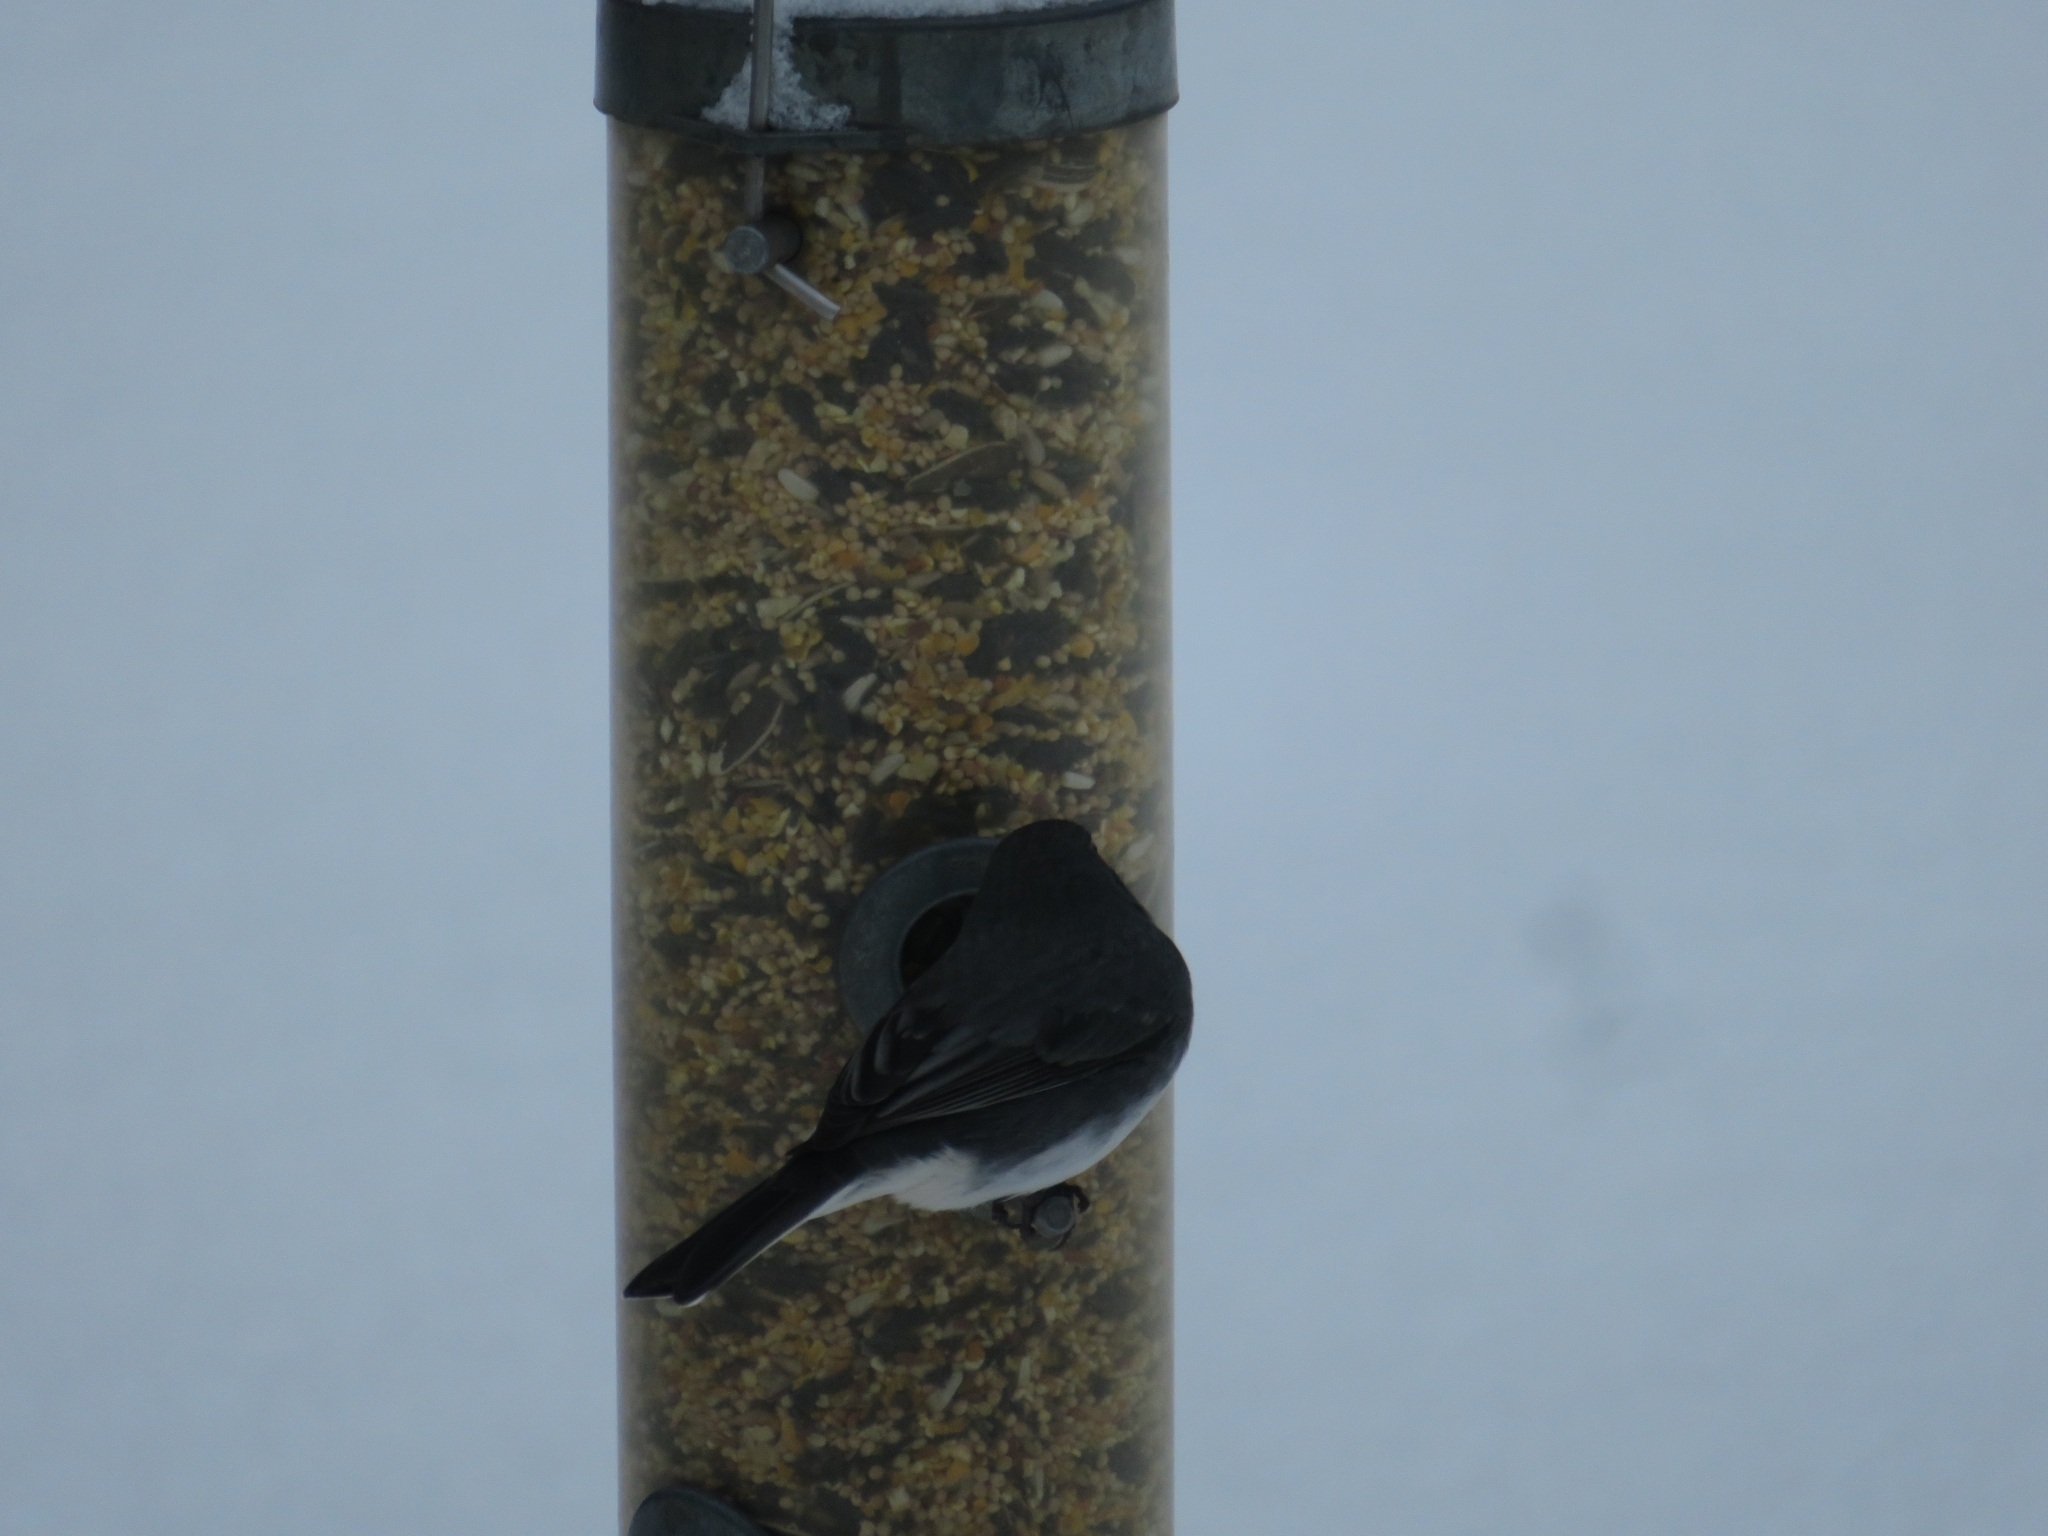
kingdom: Animalia
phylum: Chordata
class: Aves
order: Passeriformes
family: Passerellidae
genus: Junco
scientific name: Junco hyemalis
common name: Dark-eyed junco
